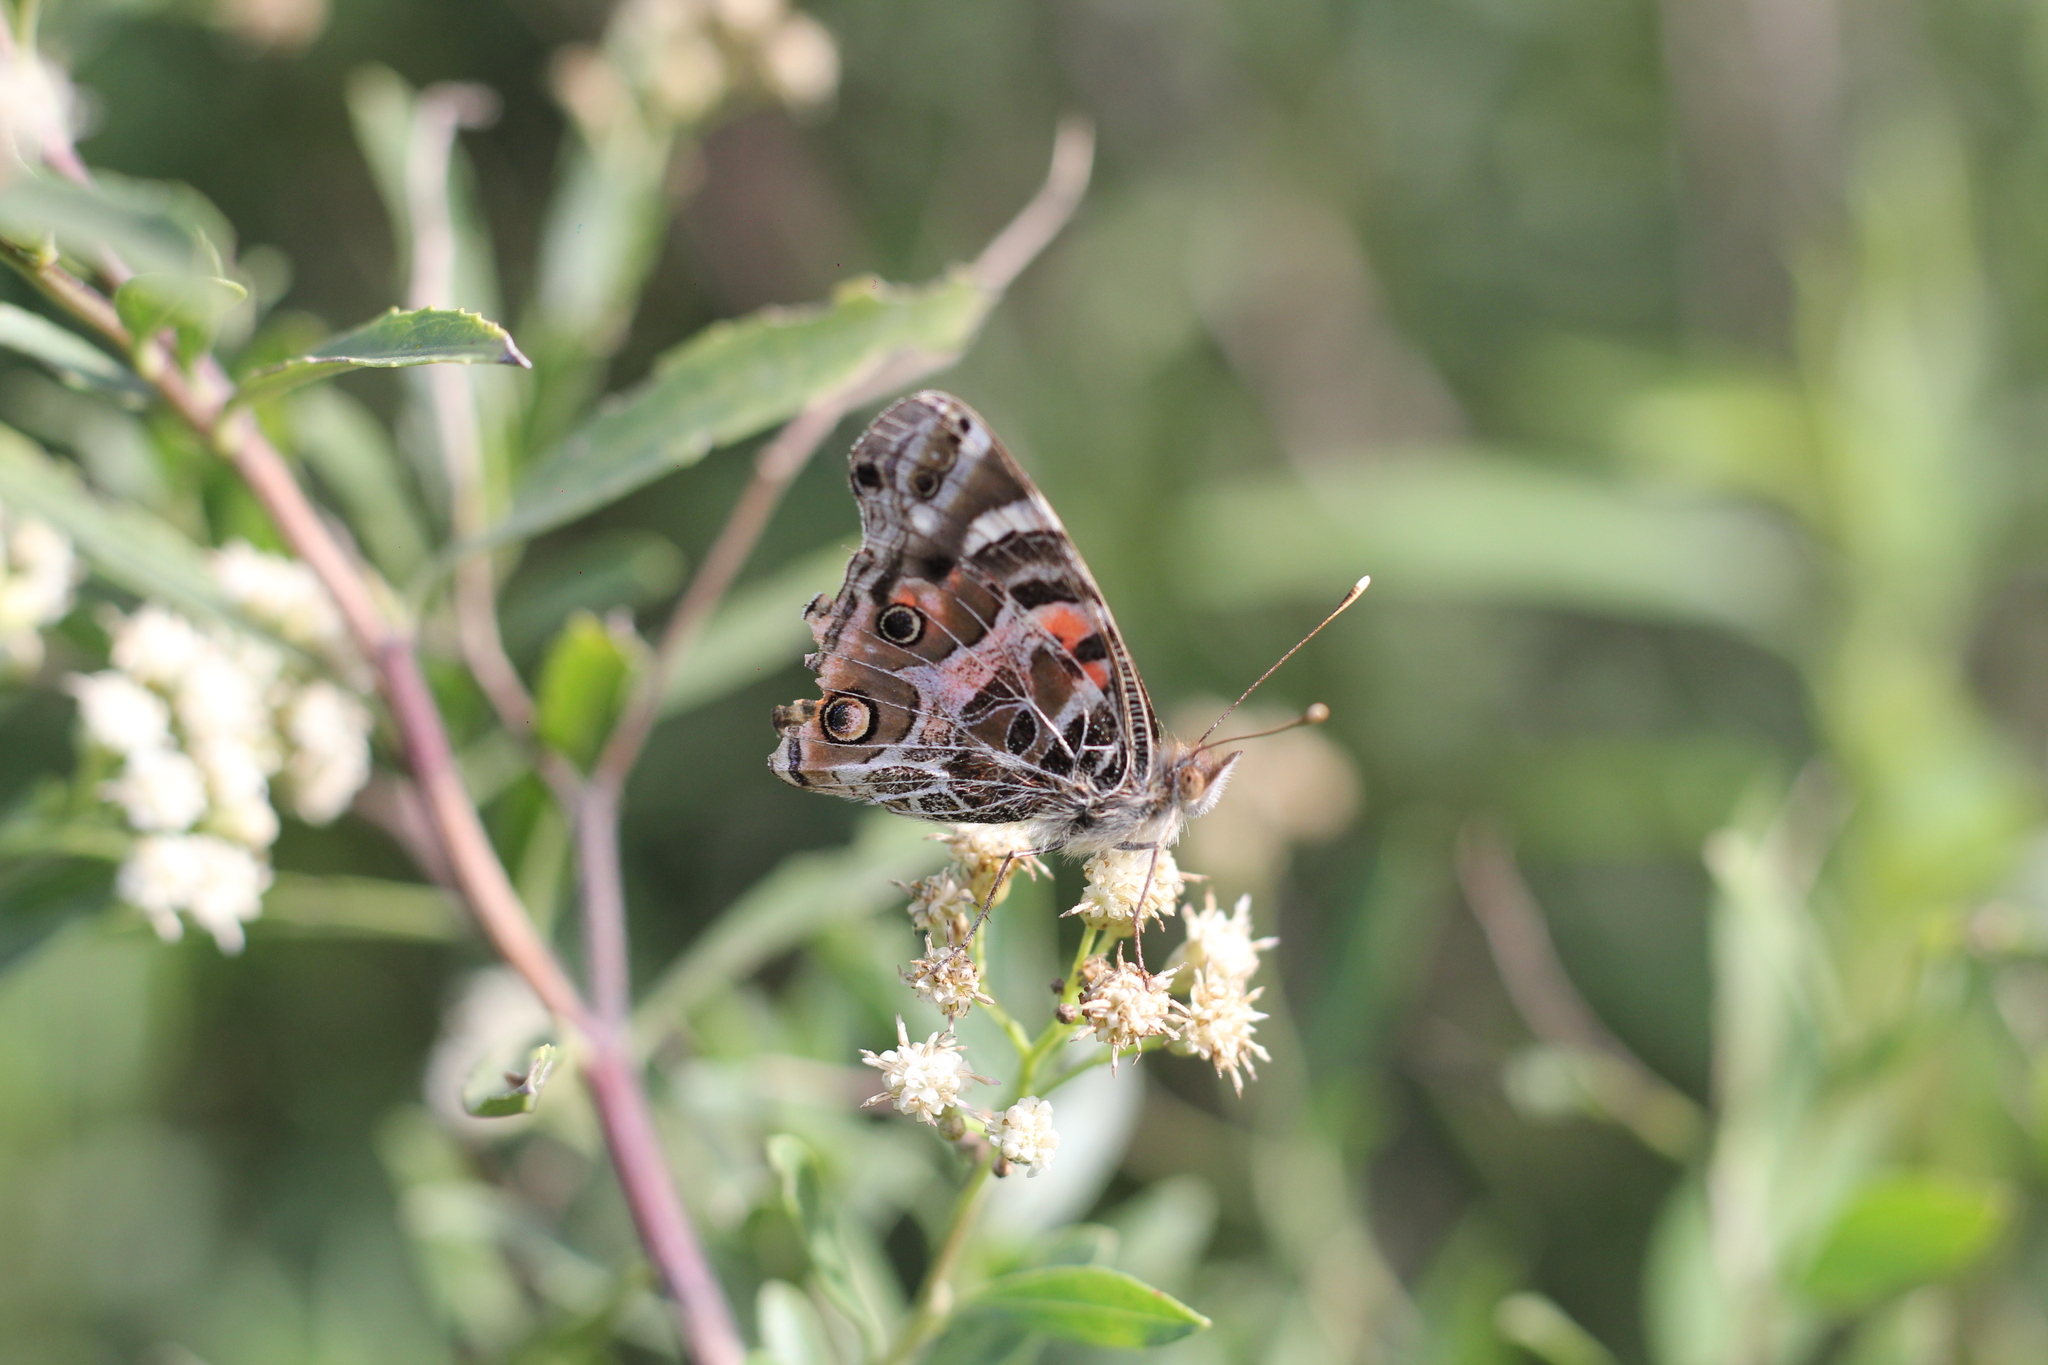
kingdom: Animalia
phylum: Arthropoda
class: Insecta
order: Lepidoptera
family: Nymphalidae
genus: Vanessa
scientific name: Vanessa braziliensis
